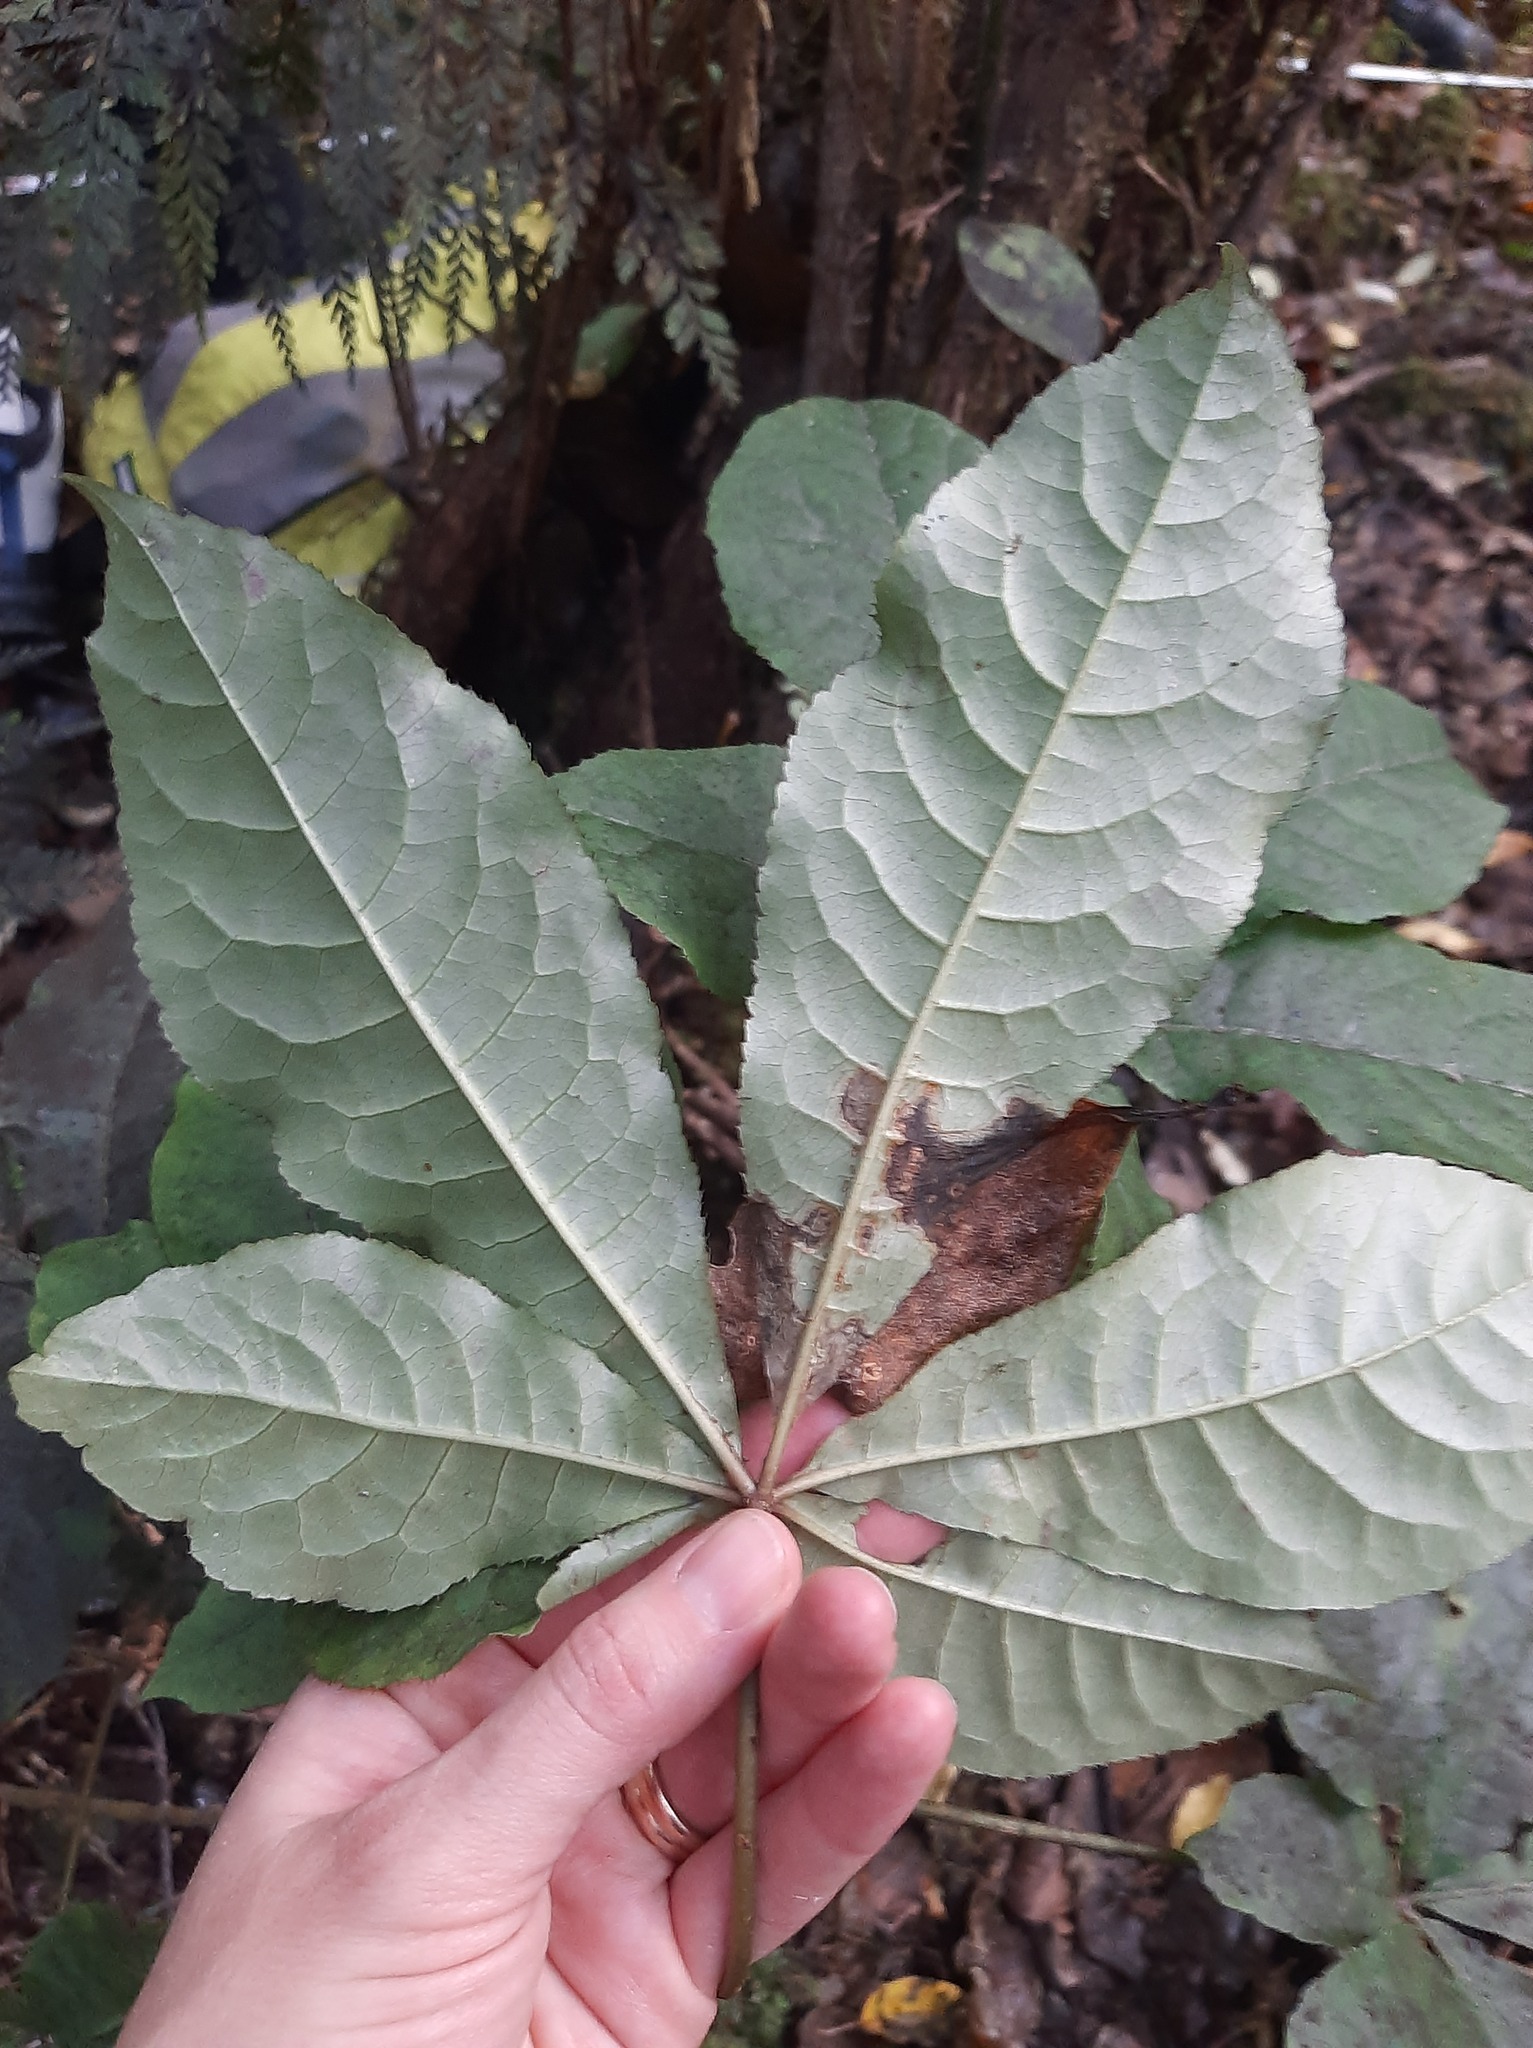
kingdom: Plantae
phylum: Tracheophyta
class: Magnoliopsida
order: Apiales
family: Araliaceae
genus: Schefflera
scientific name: Schefflera digitata
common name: Pate
